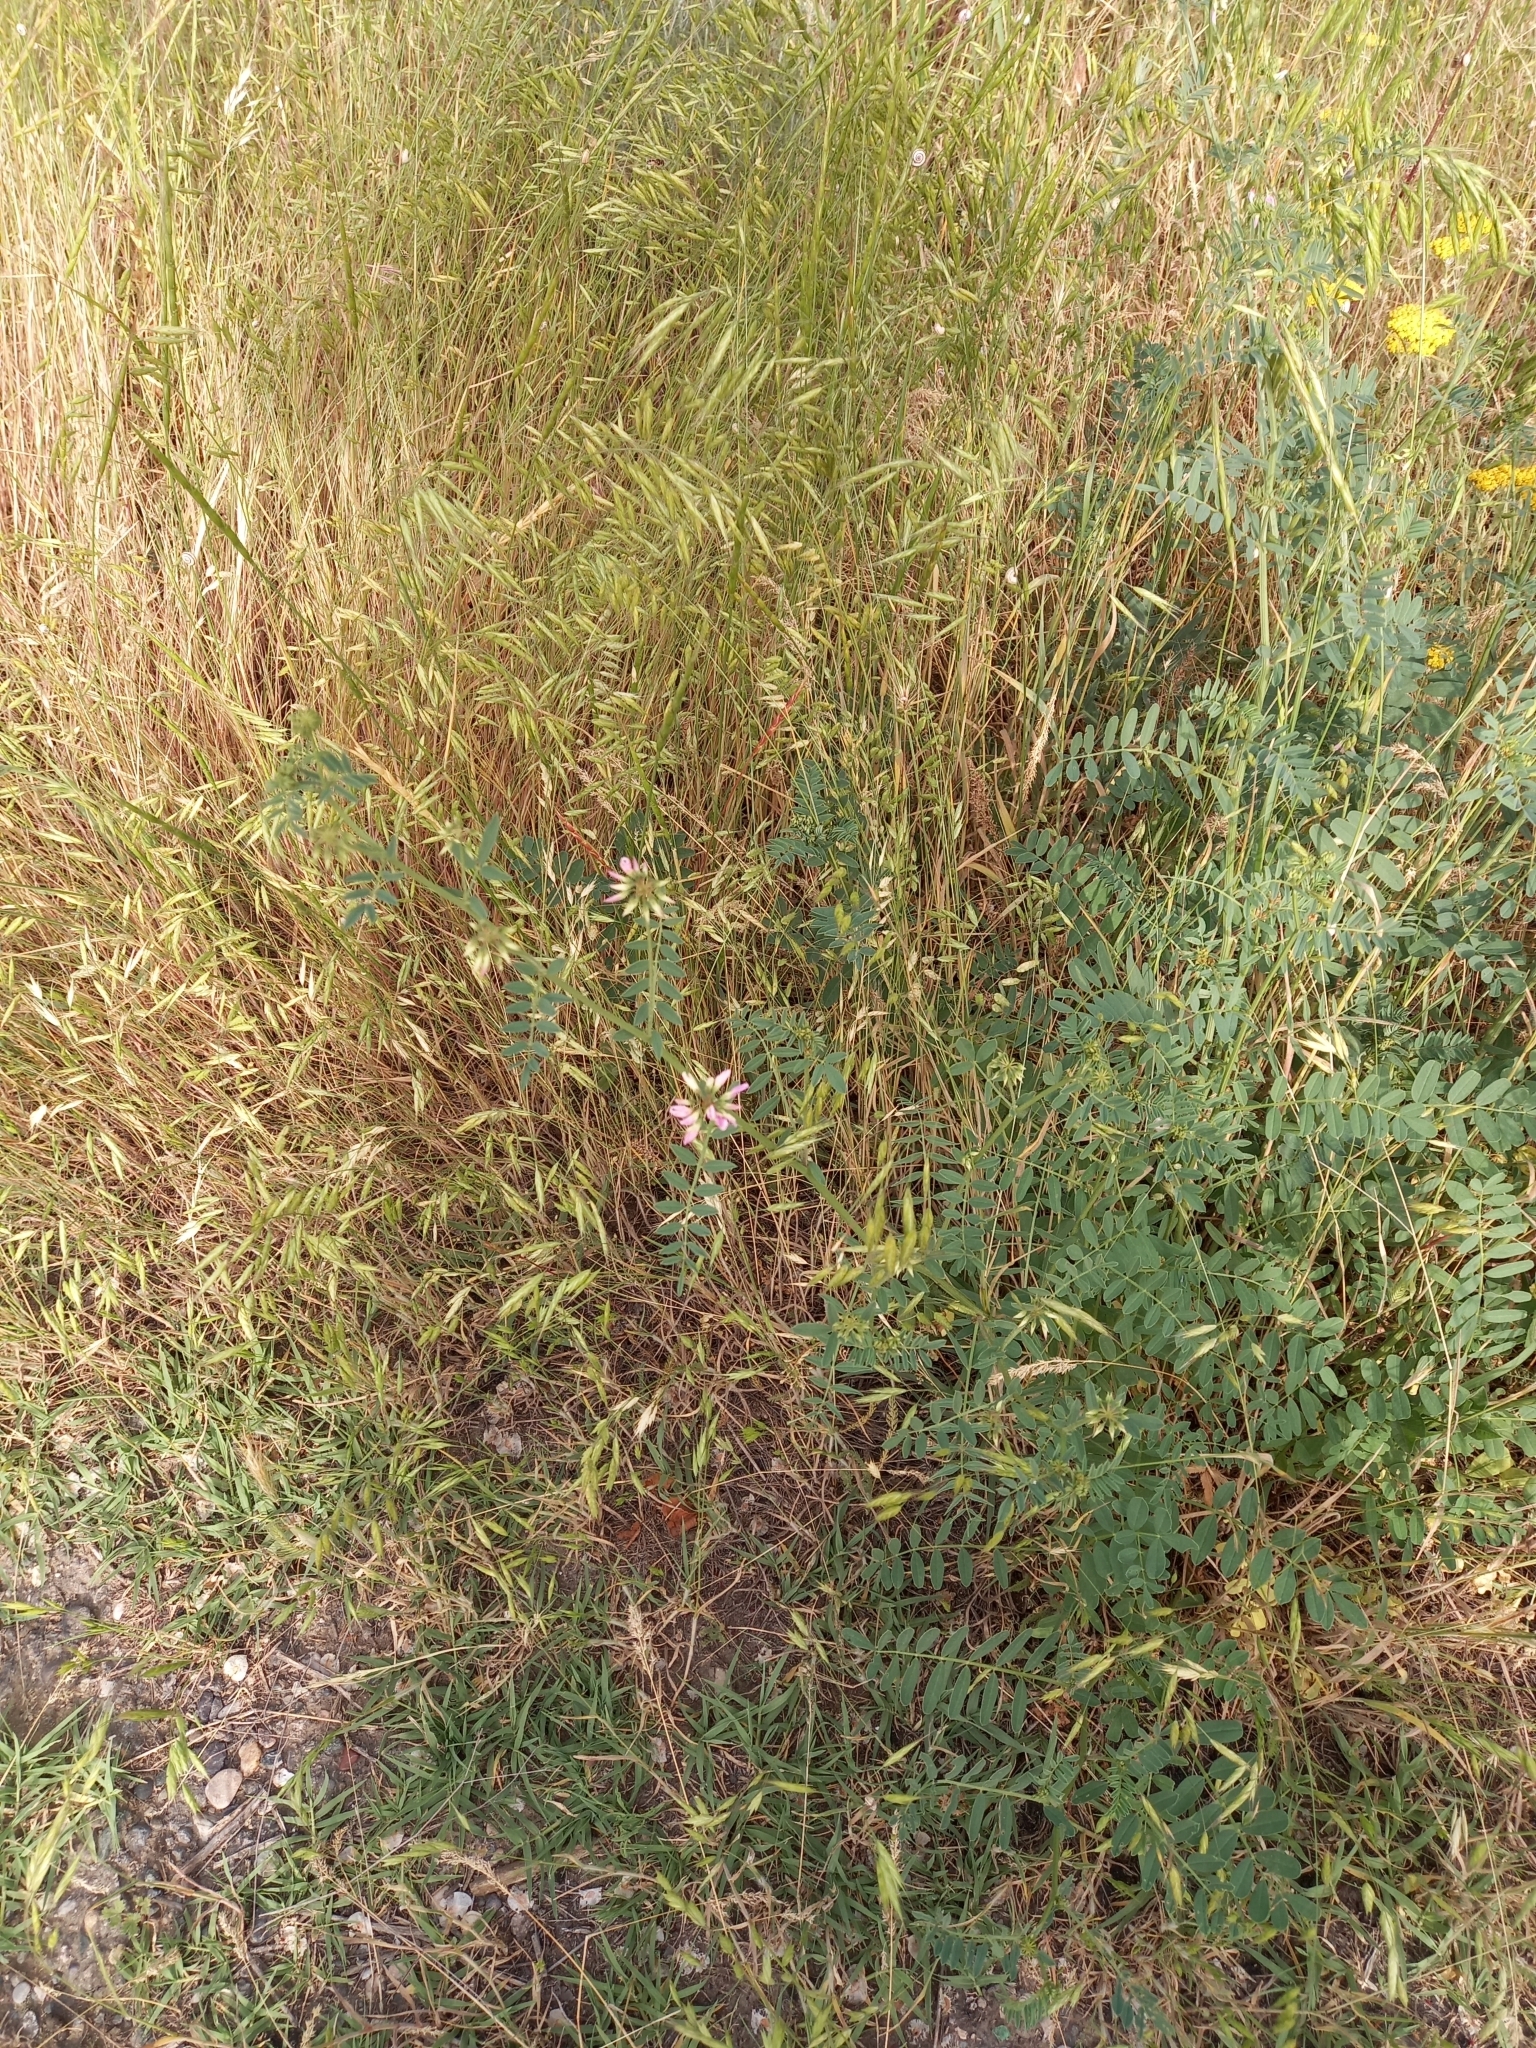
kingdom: Plantae
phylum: Tracheophyta
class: Magnoliopsida
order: Fabales
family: Fabaceae
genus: Coronilla
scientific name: Coronilla varia
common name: Crownvetch
